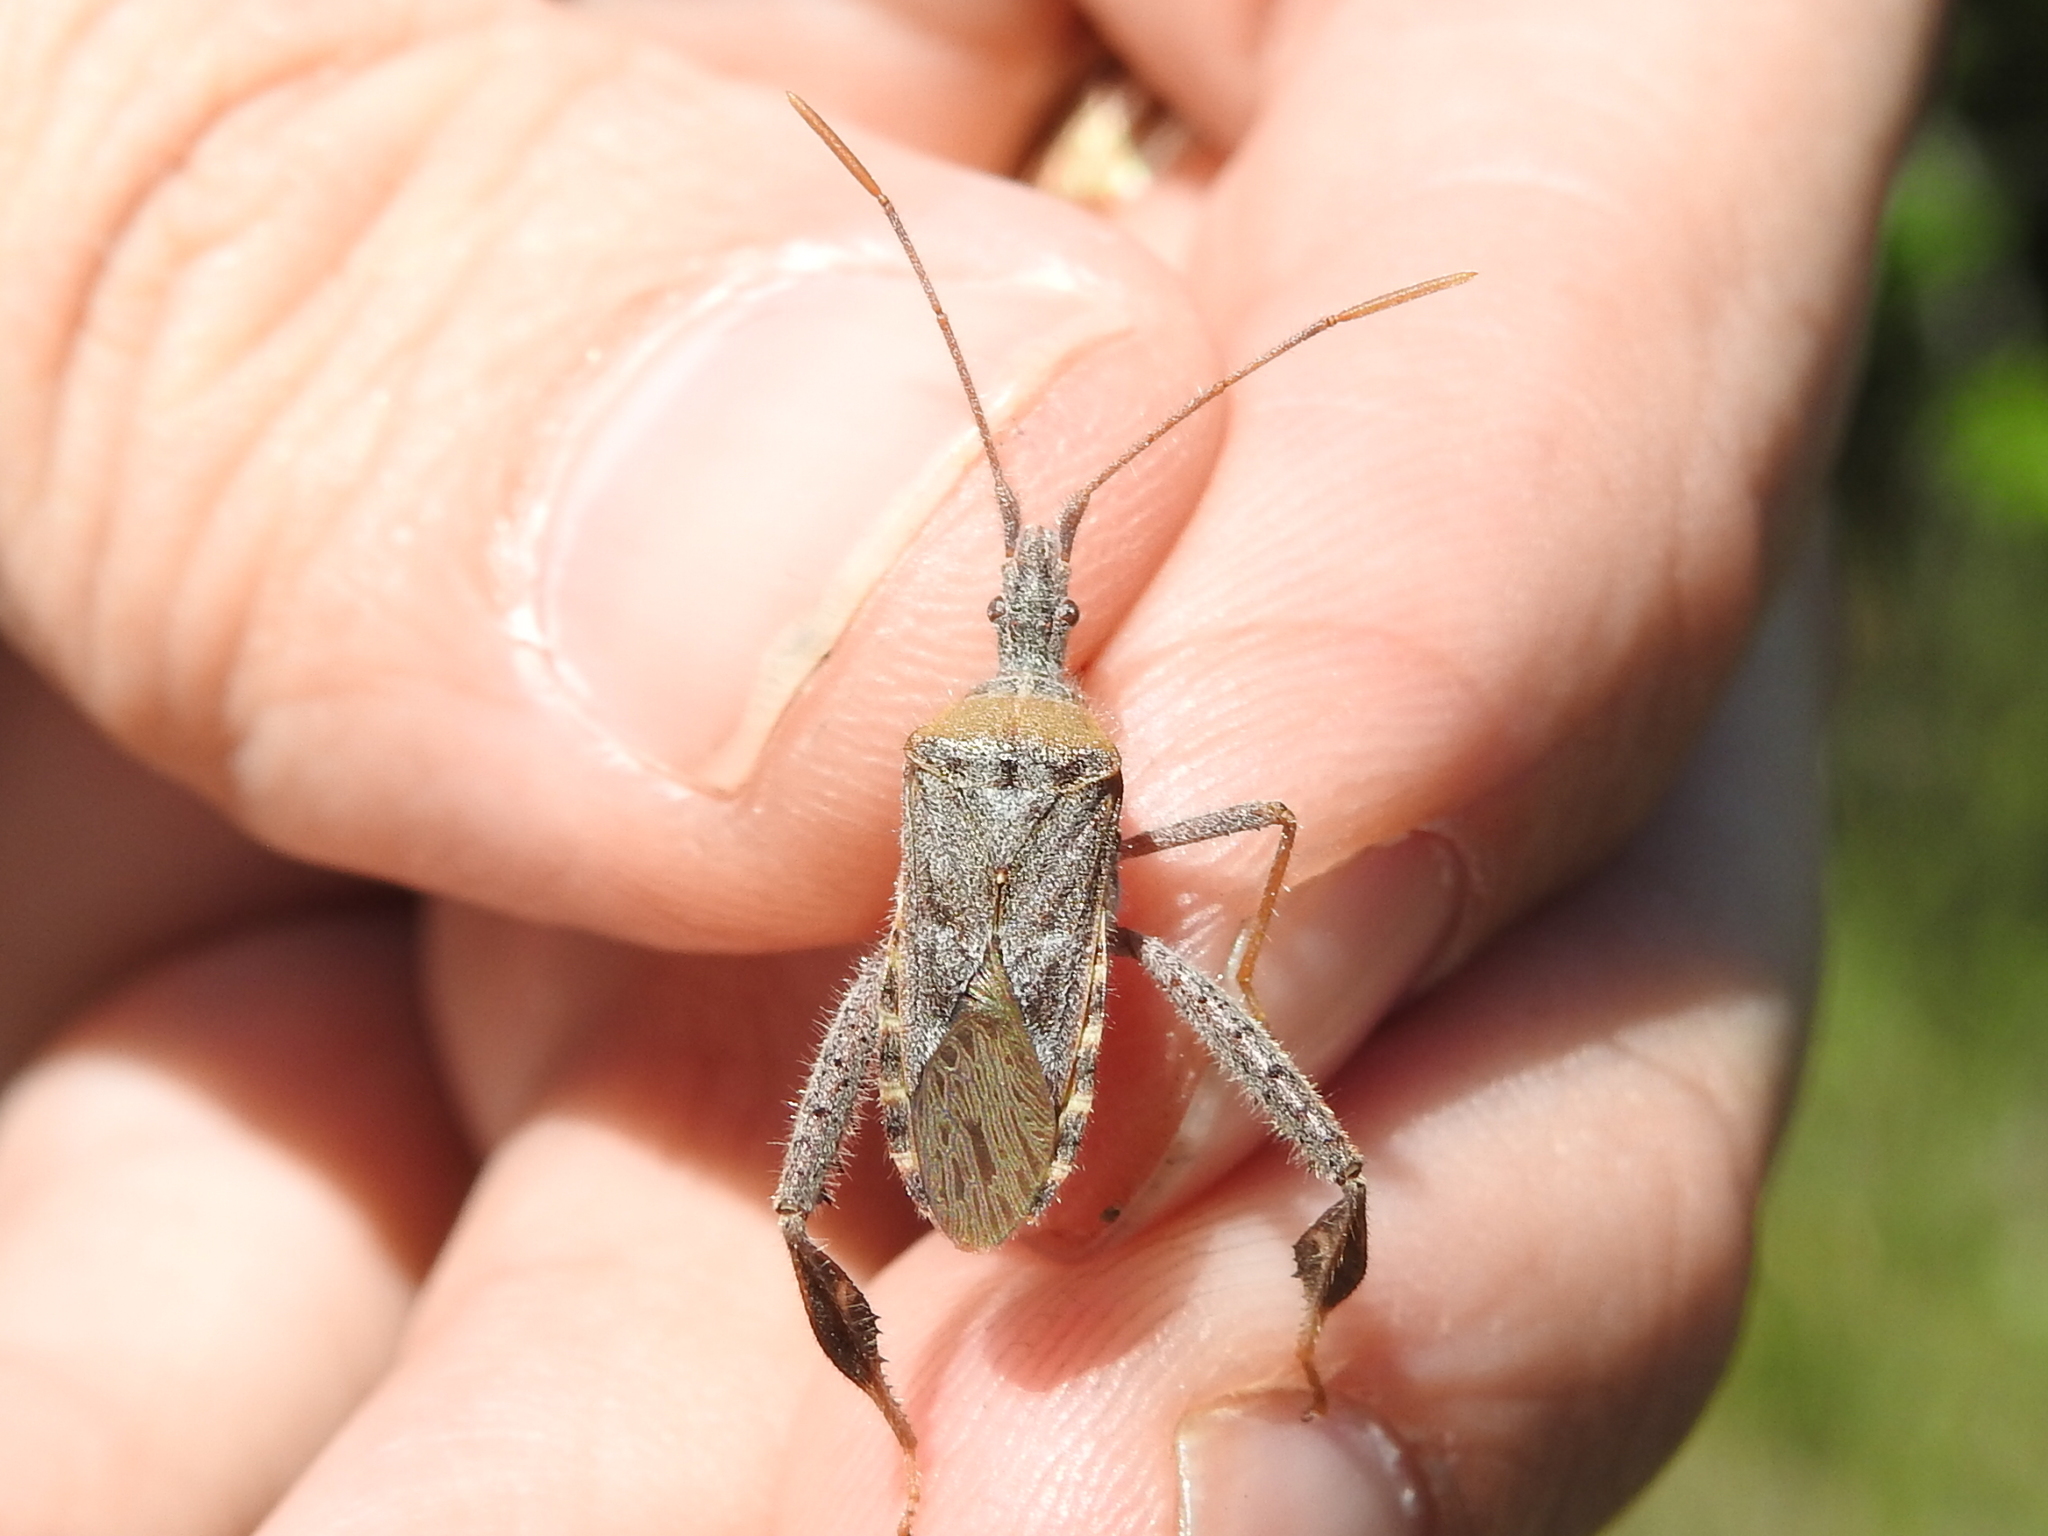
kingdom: Animalia
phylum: Arthropoda
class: Insecta
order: Hemiptera
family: Coreidae
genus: Narnia
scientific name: Narnia femorata
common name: Leaf-footed cactus bug
